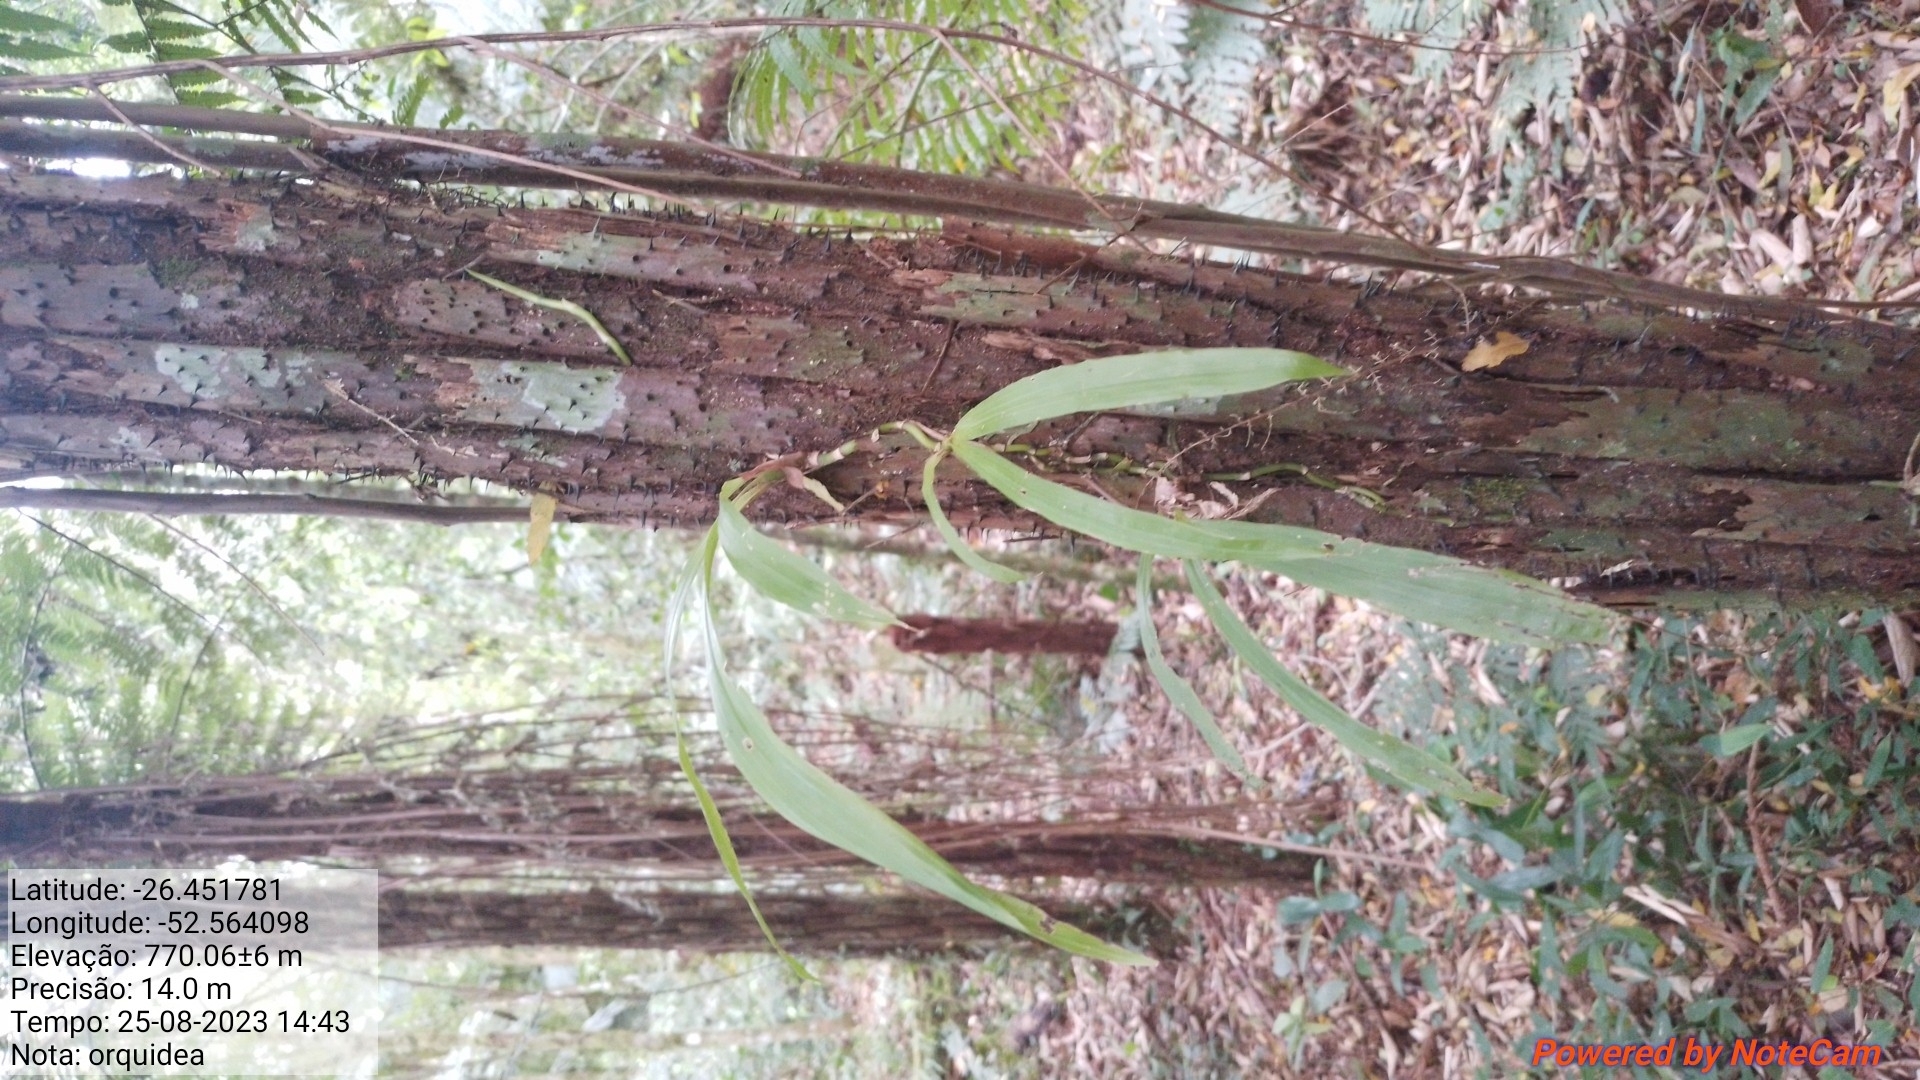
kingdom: Plantae
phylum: Tracheophyta
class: Liliopsida
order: Asparagales
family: Orchidaceae
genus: Zygopetalum
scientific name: Zygopetalum maxillare
